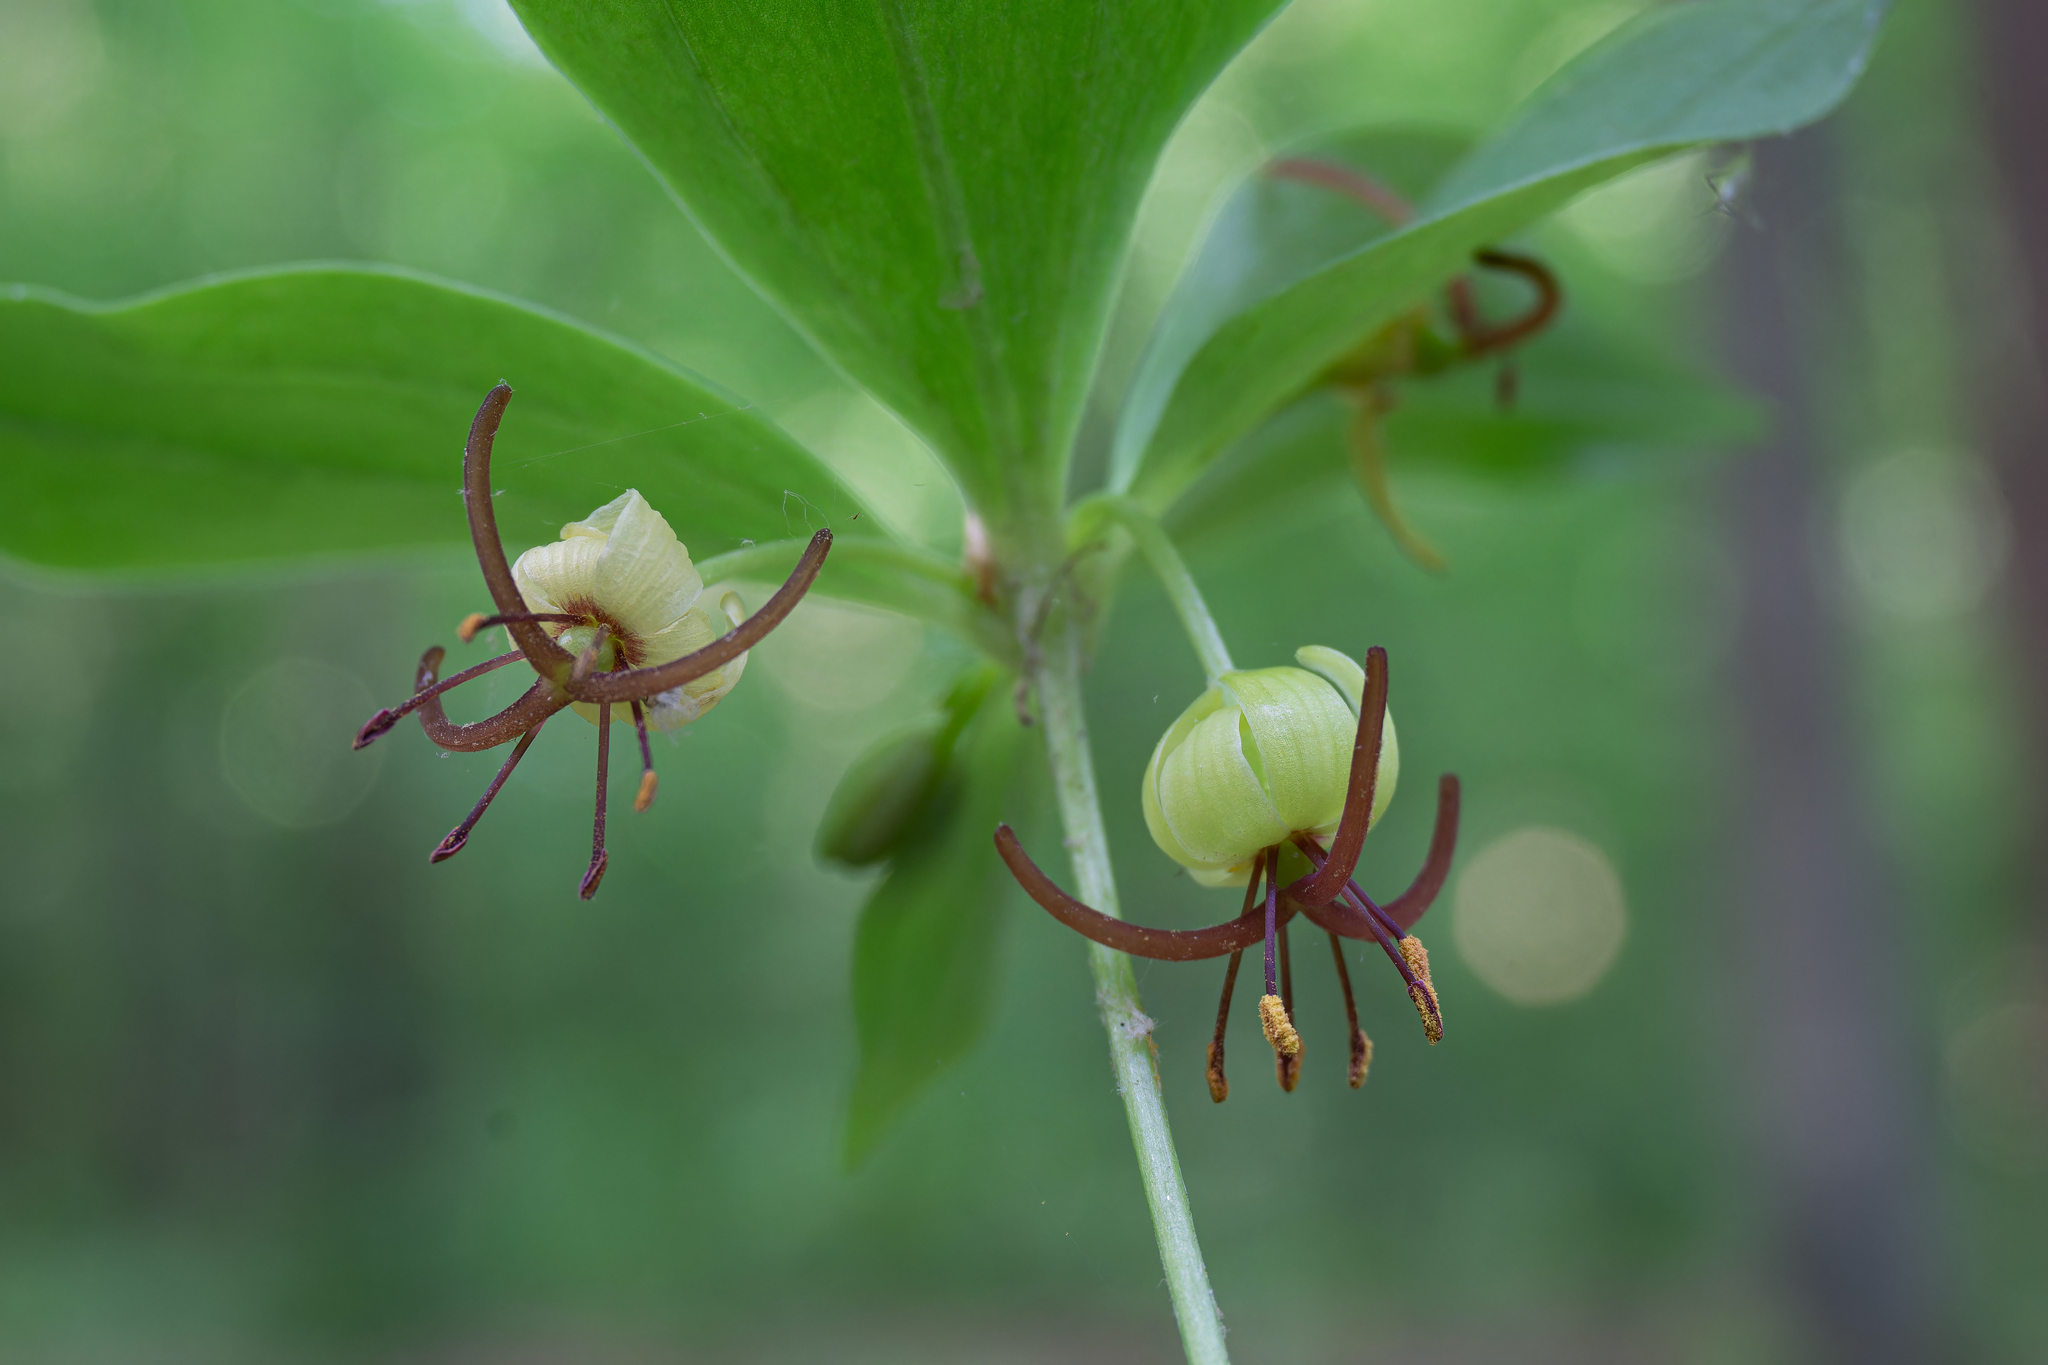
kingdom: Plantae
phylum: Tracheophyta
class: Liliopsida
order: Liliales
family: Liliaceae
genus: Medeola
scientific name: Medeola virginiana
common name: Indian cucumber-root
